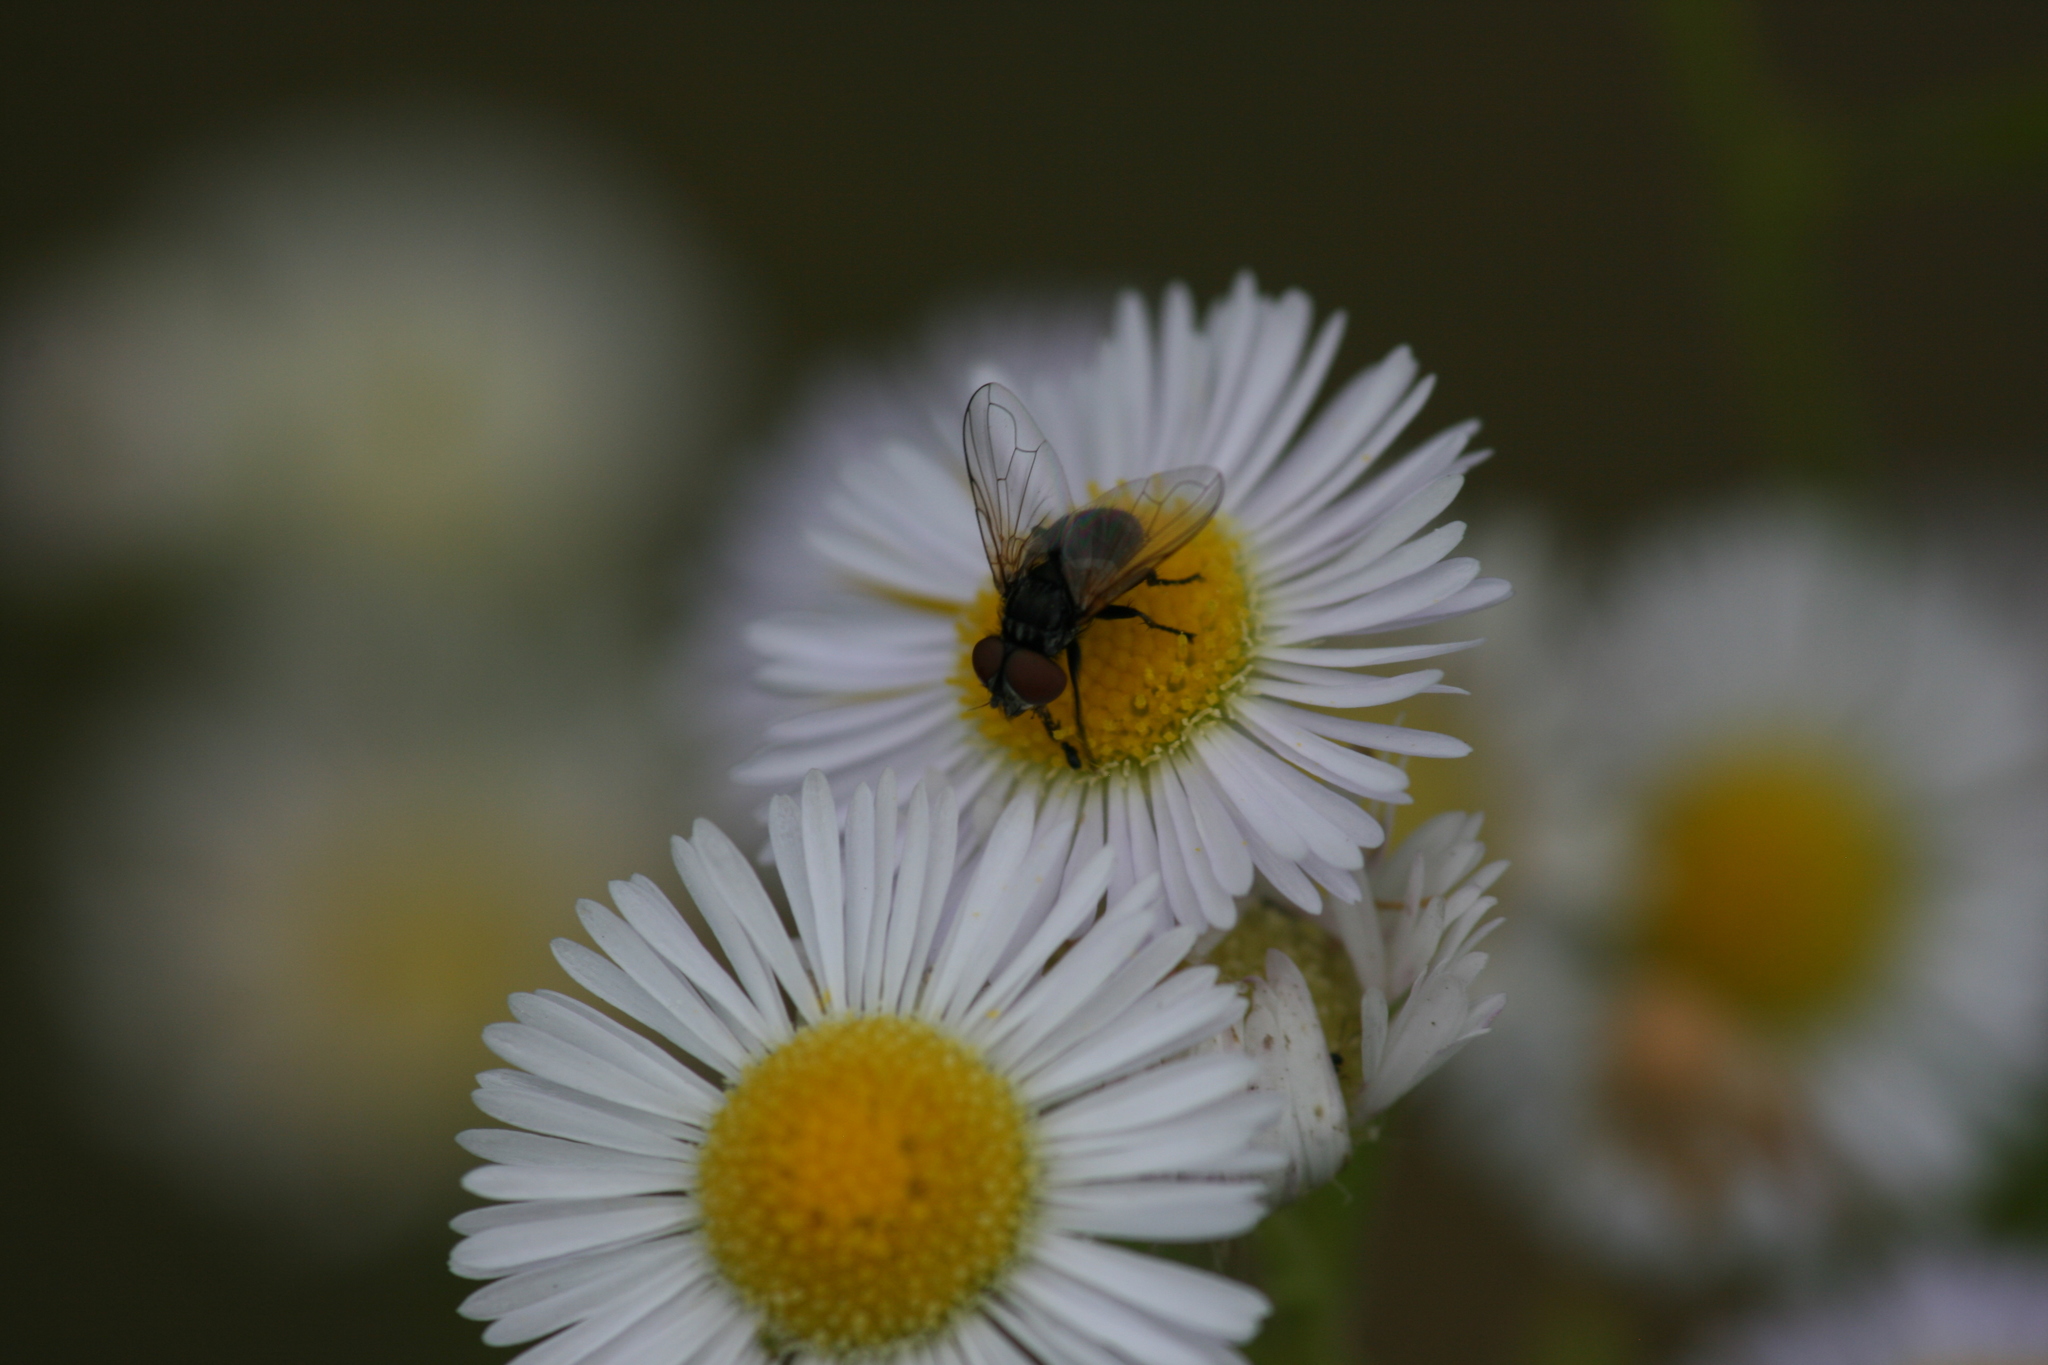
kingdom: Animalia
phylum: Arthropoda
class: Insecta
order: Diptera
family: Tachinidae
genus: Phasia
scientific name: Phasia obesa
